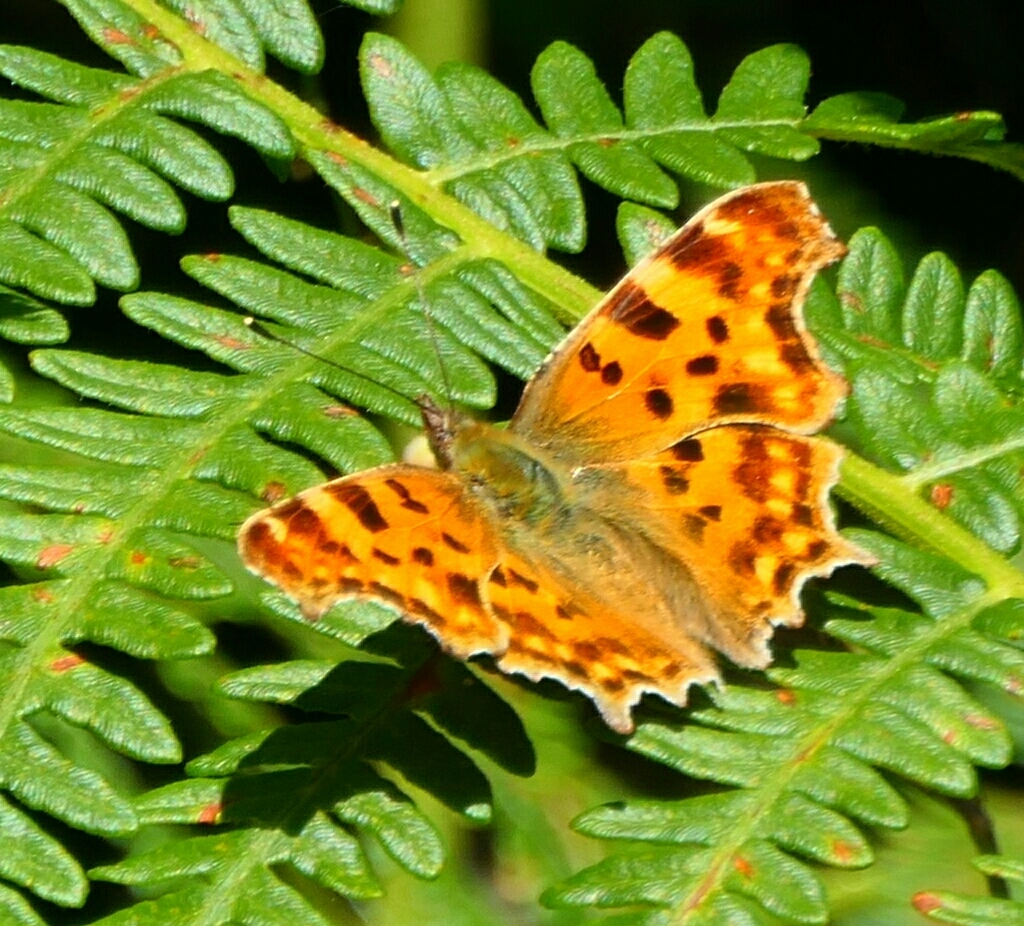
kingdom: Animalia
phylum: Arthropoda
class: Insecta
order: Lepidoptera
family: Nymphalidae
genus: Polygonia
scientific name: Polygonia c-album
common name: Comma
